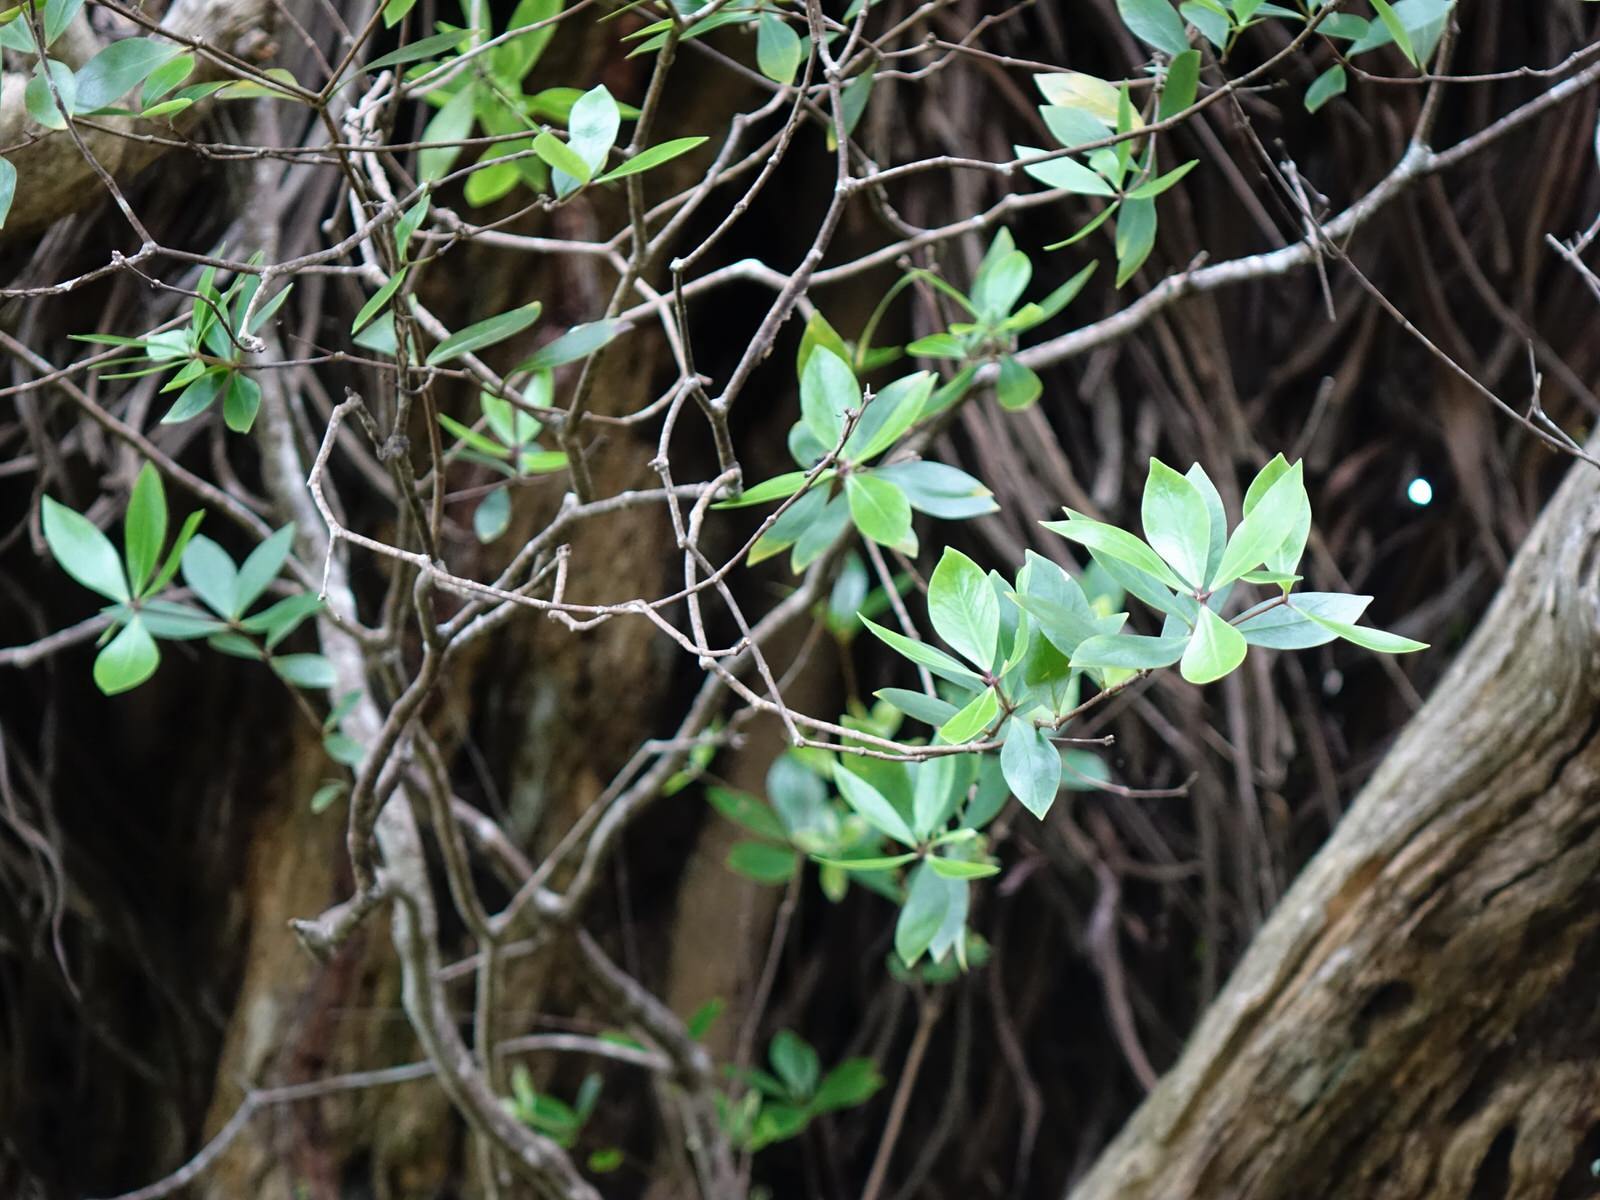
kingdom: Plantae
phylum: Tracheophyta
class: Magnoliopsida
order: Apiales
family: Pittosporaceae
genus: Pittosporum
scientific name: Pittosporum cornifolium
